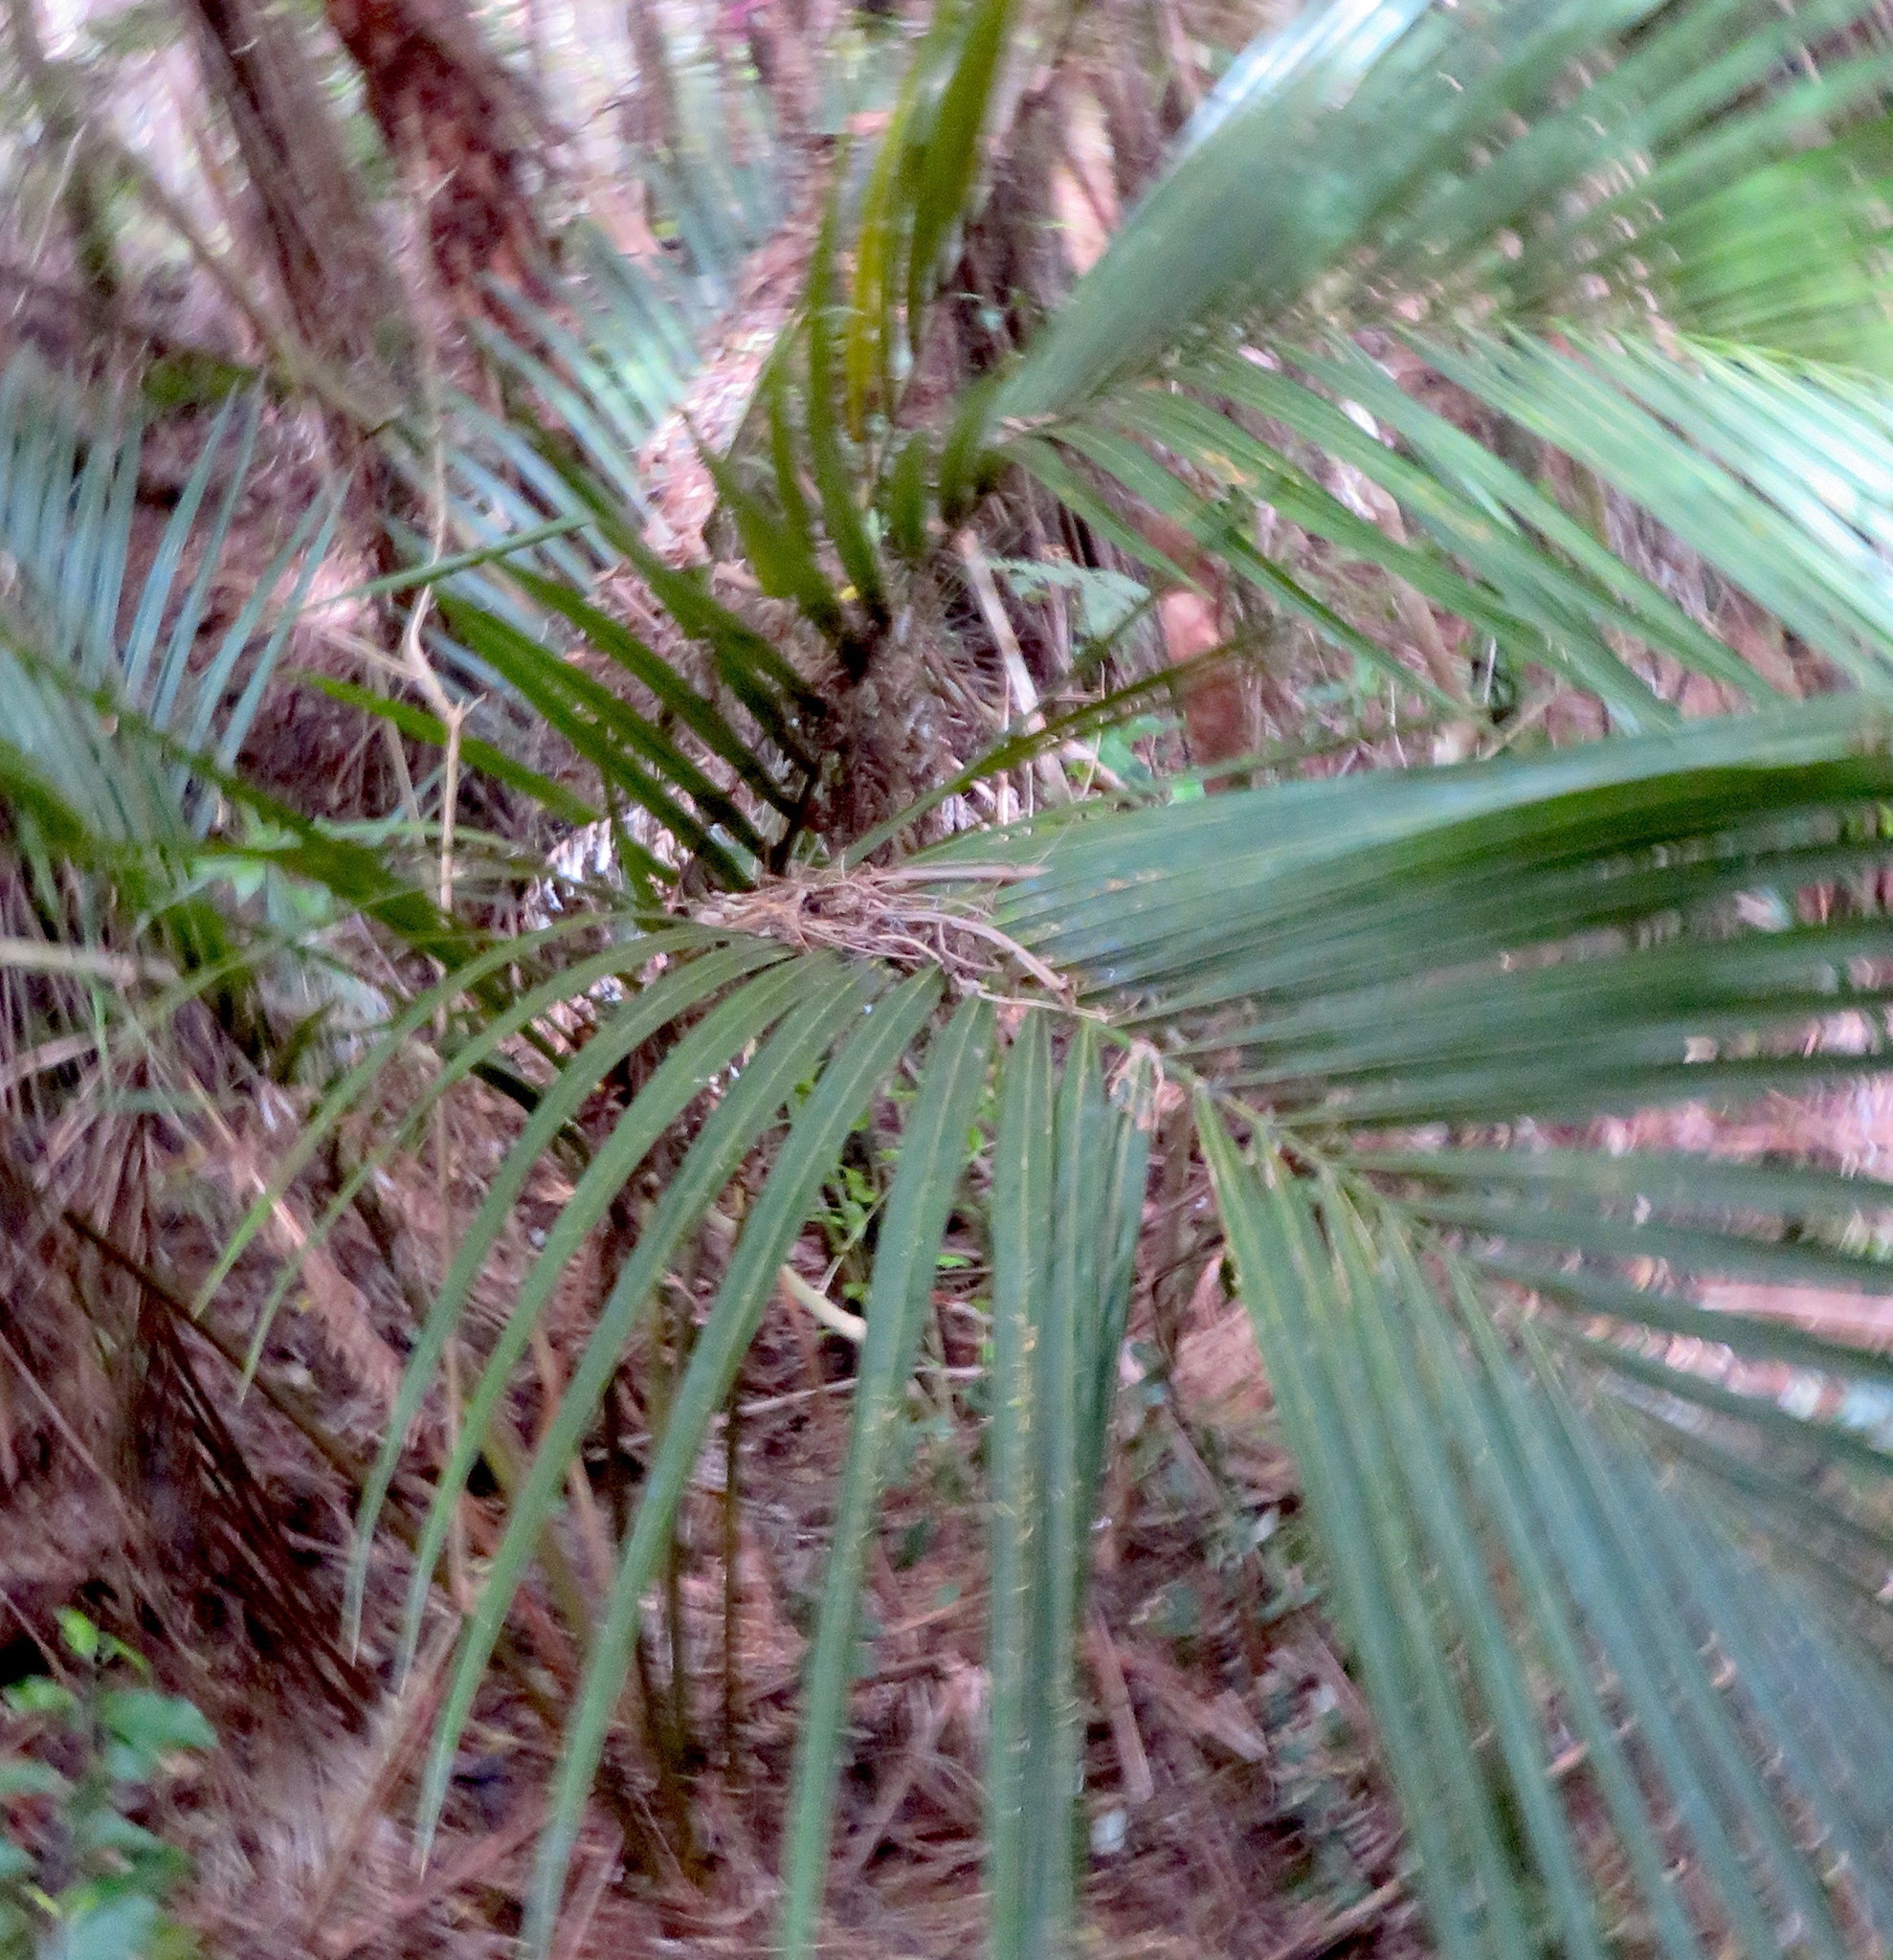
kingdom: Plantae
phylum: Tracheophyta
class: Liliopsida
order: Arecales
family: Arecaceae
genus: Rhopalostylis
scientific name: Rhopalostylis sapida
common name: Feather-duster palm
